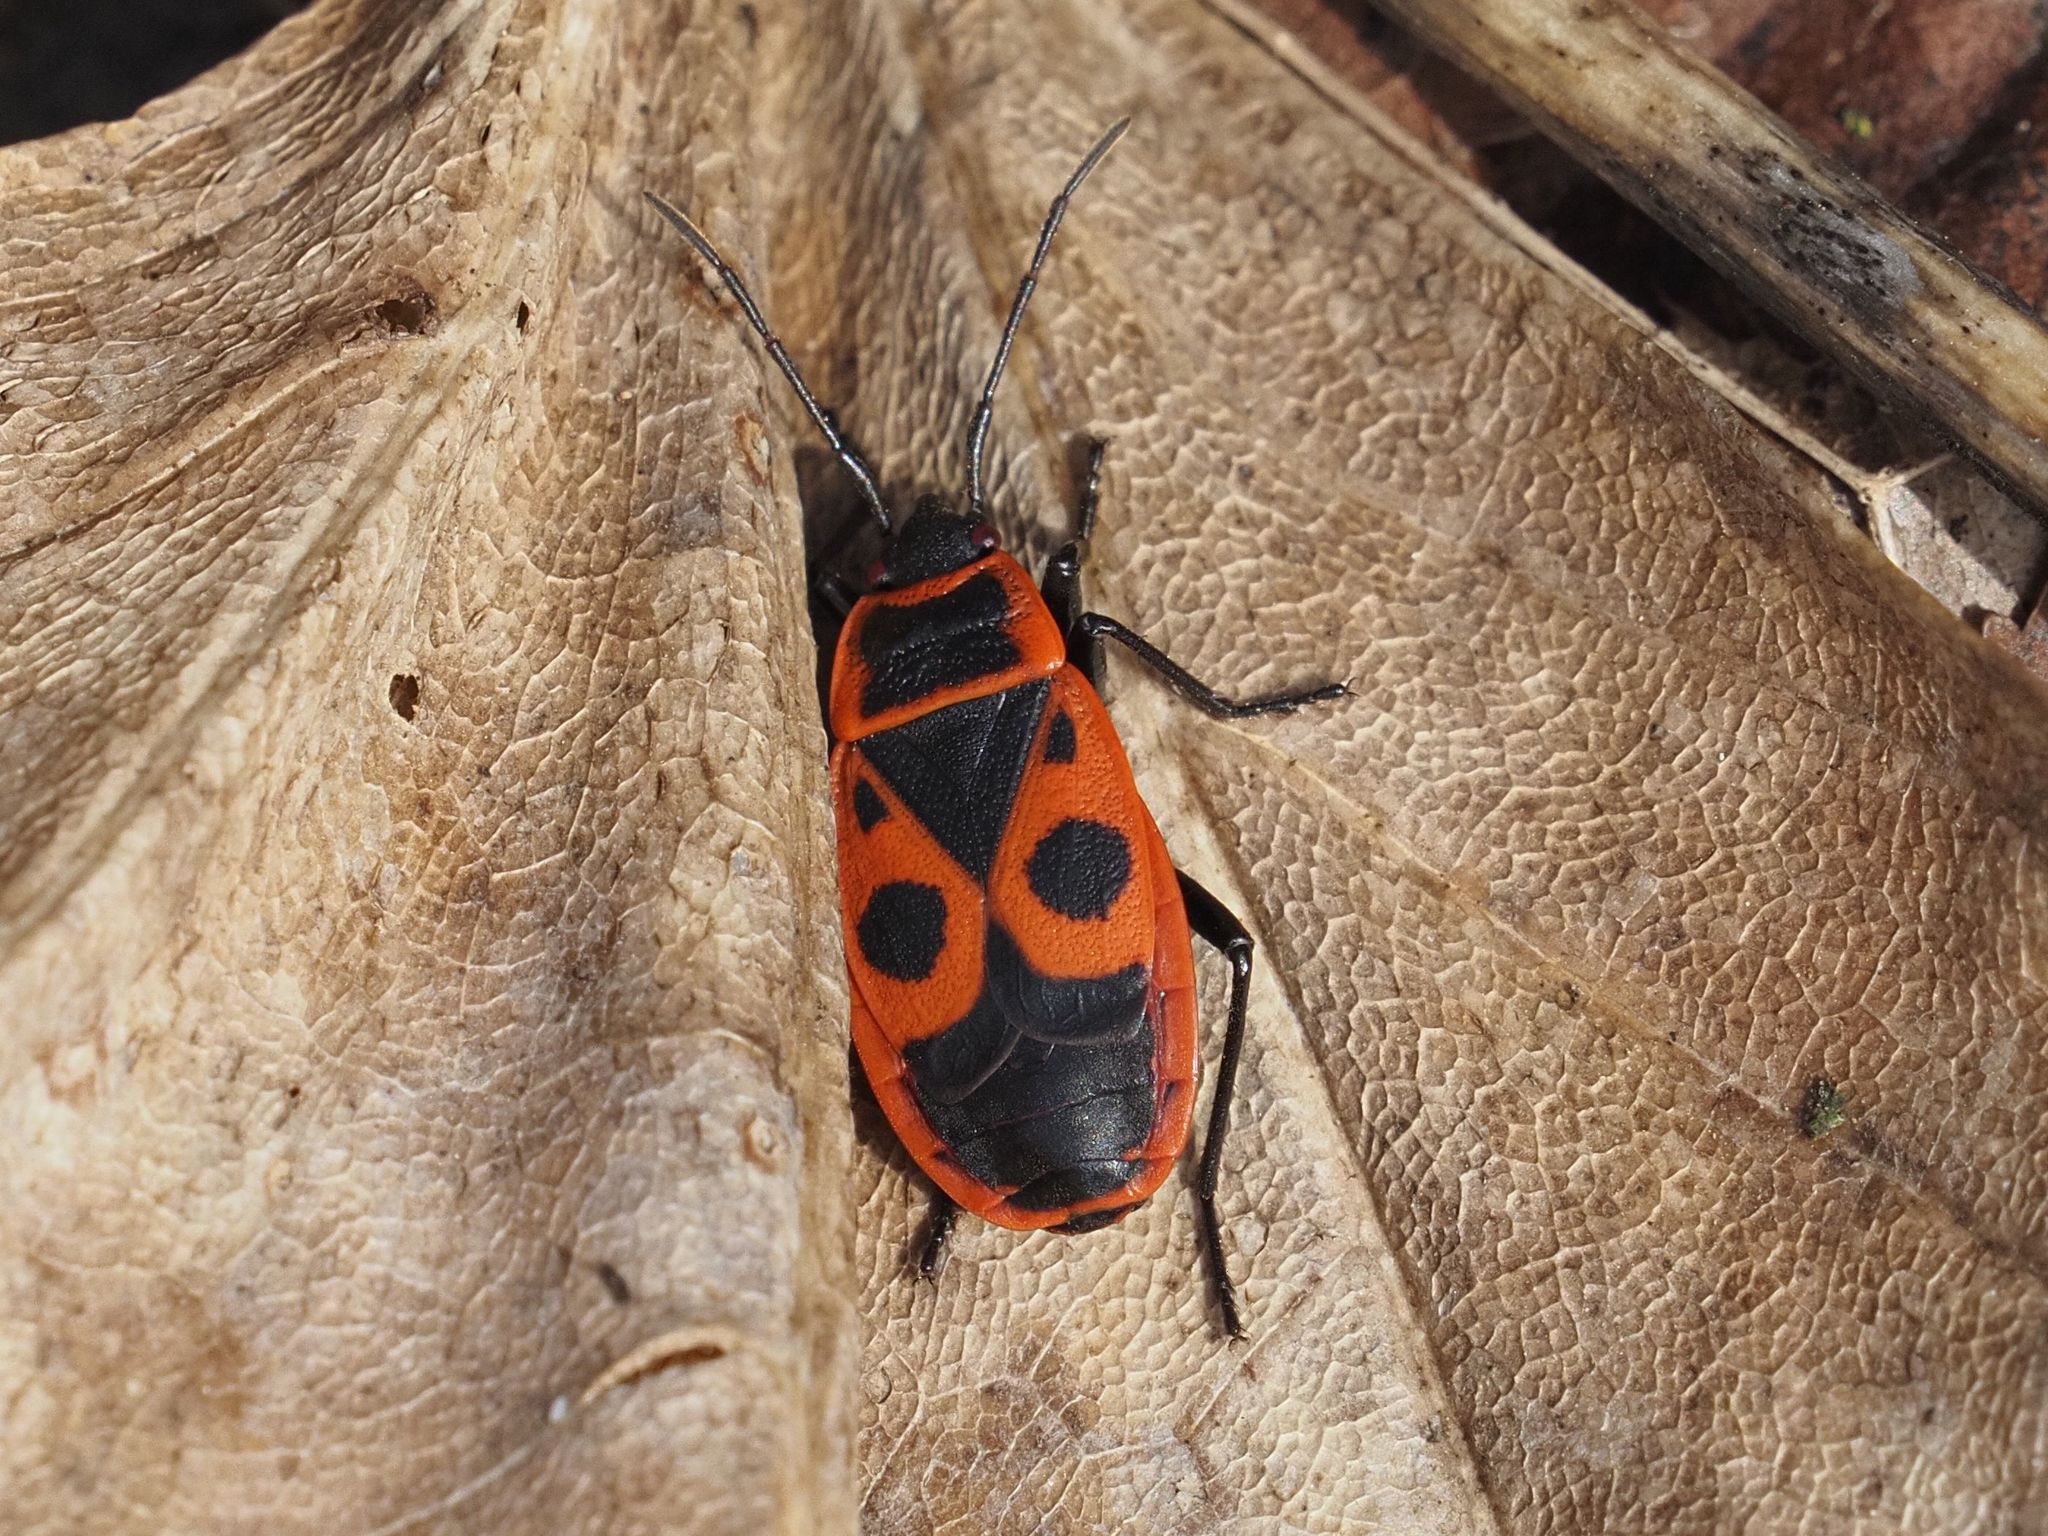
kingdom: Animalia
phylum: Arthropoda
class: Insecta
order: Hemiptera
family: Pyrrhocoridae
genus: Pyrrhocoris
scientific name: Pyrrhocoris apterus
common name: Firebug
